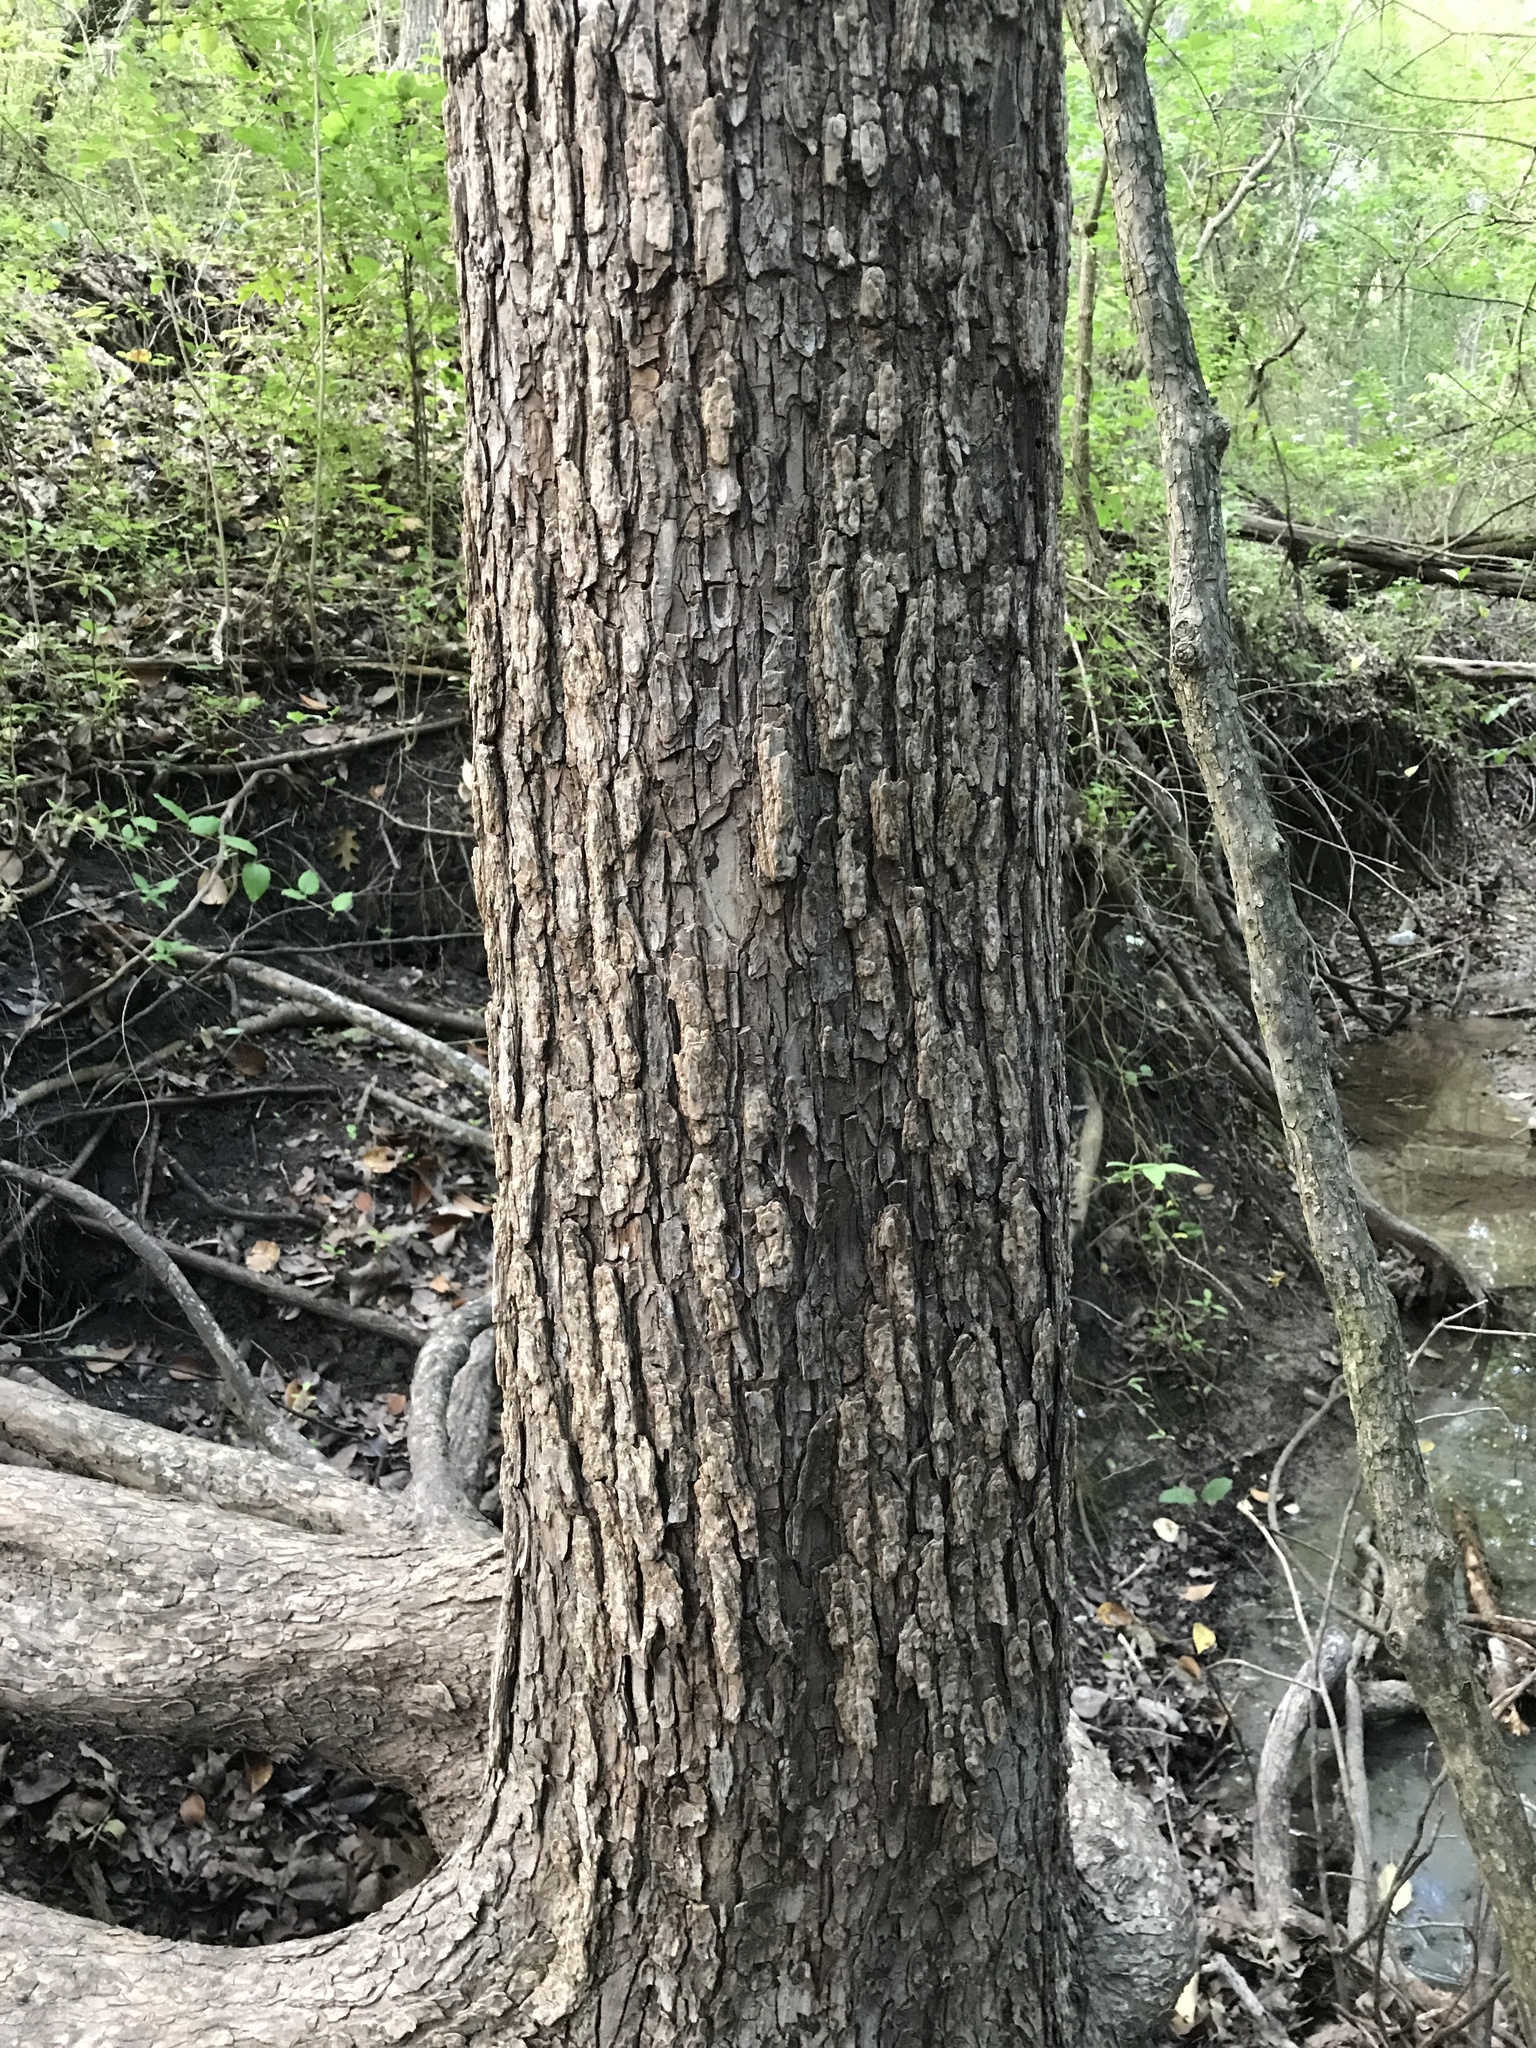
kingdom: Plantae
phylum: Tracheophyta
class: Magnoliopsida
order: Rosales
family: Ulmaceae
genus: Ulmus
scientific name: Ulmus crassifolia
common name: Basket elm
